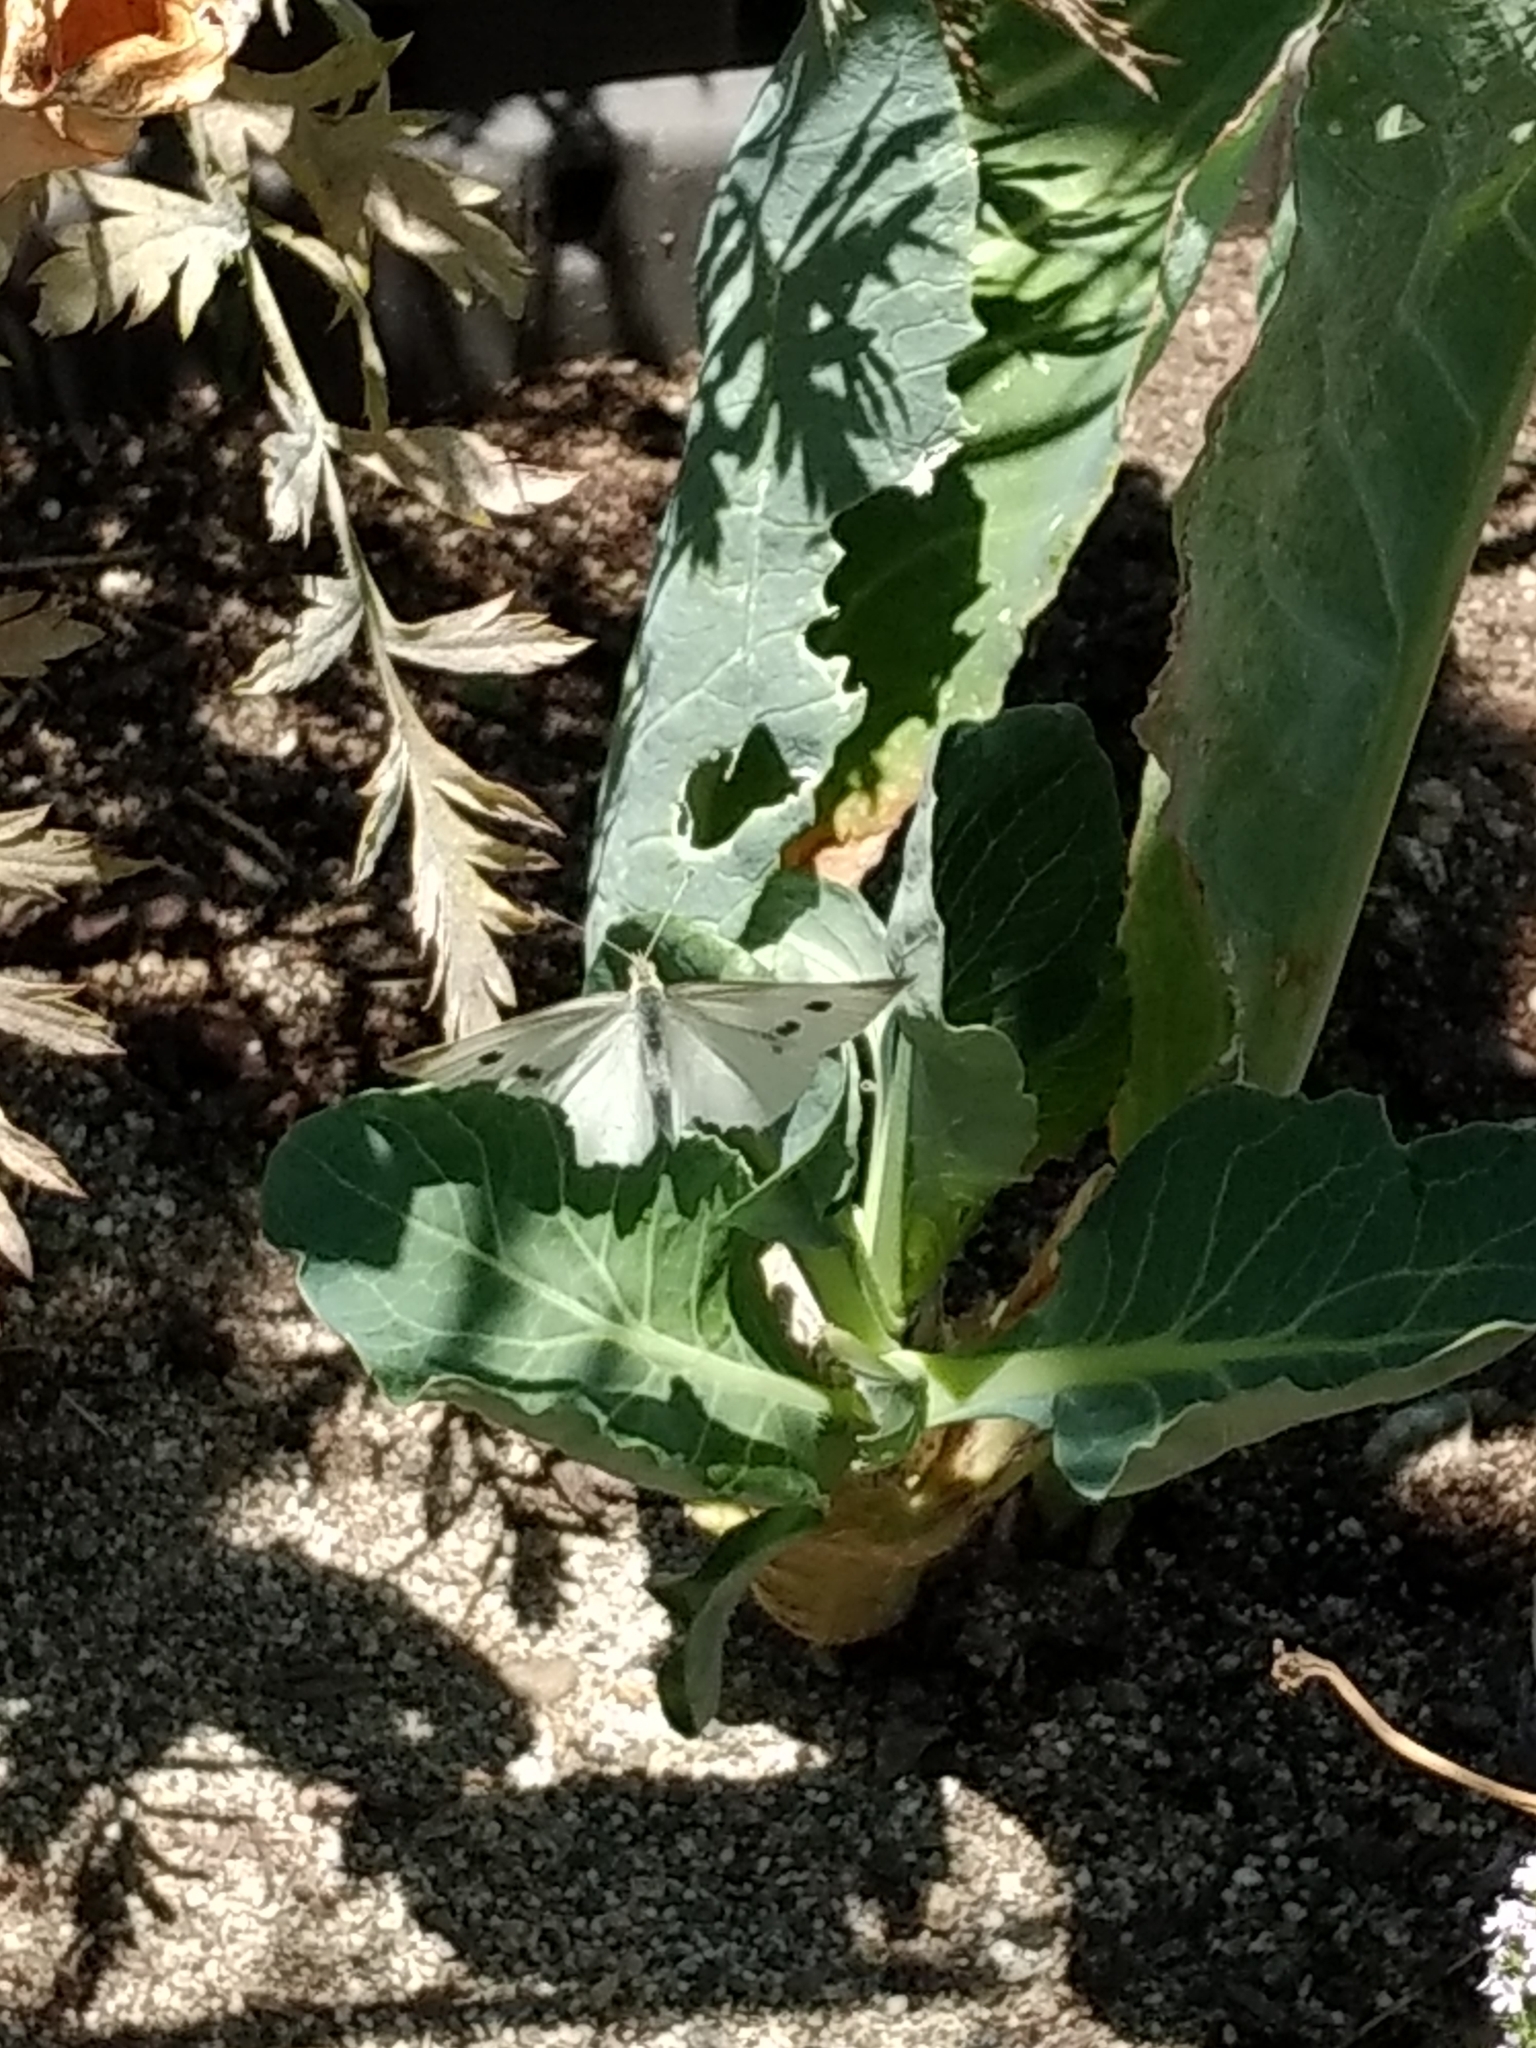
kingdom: Animalia
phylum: Arthropoda
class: Insecta
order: Lepidoptera
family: Pieridae
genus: Pieris
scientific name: Pieris rapae
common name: Small white
